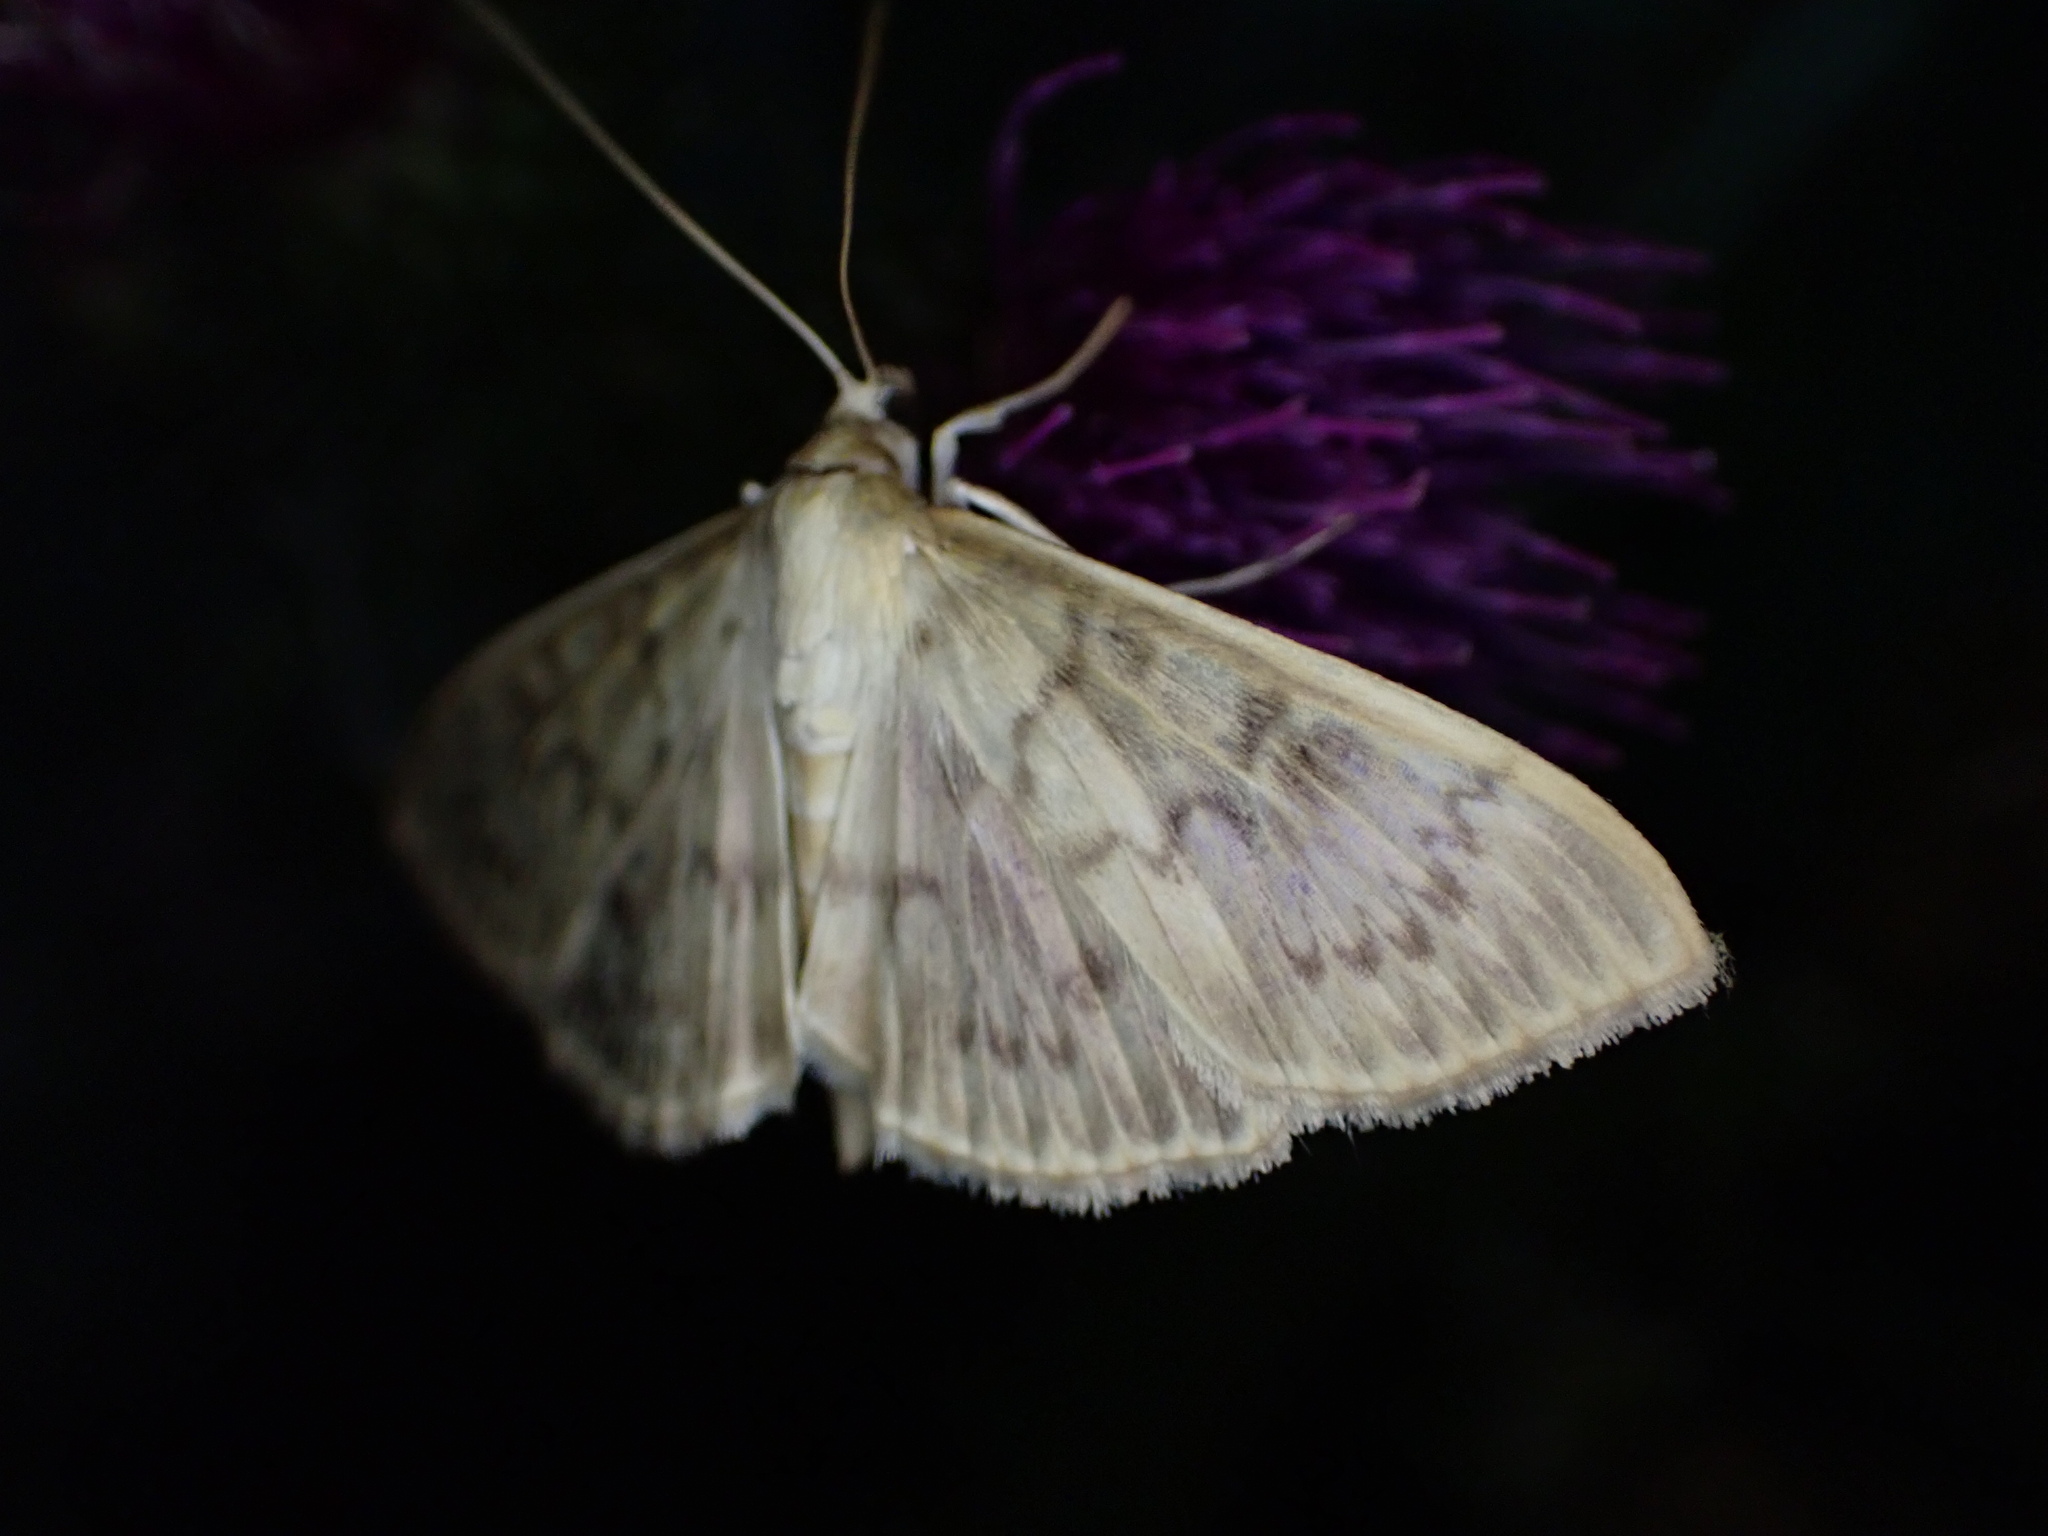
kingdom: Animalia
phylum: Arthropoda
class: Insecta
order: Lepidoptera
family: Crambidae
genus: Patania
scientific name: Patania ruralis
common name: Mother of pearl
